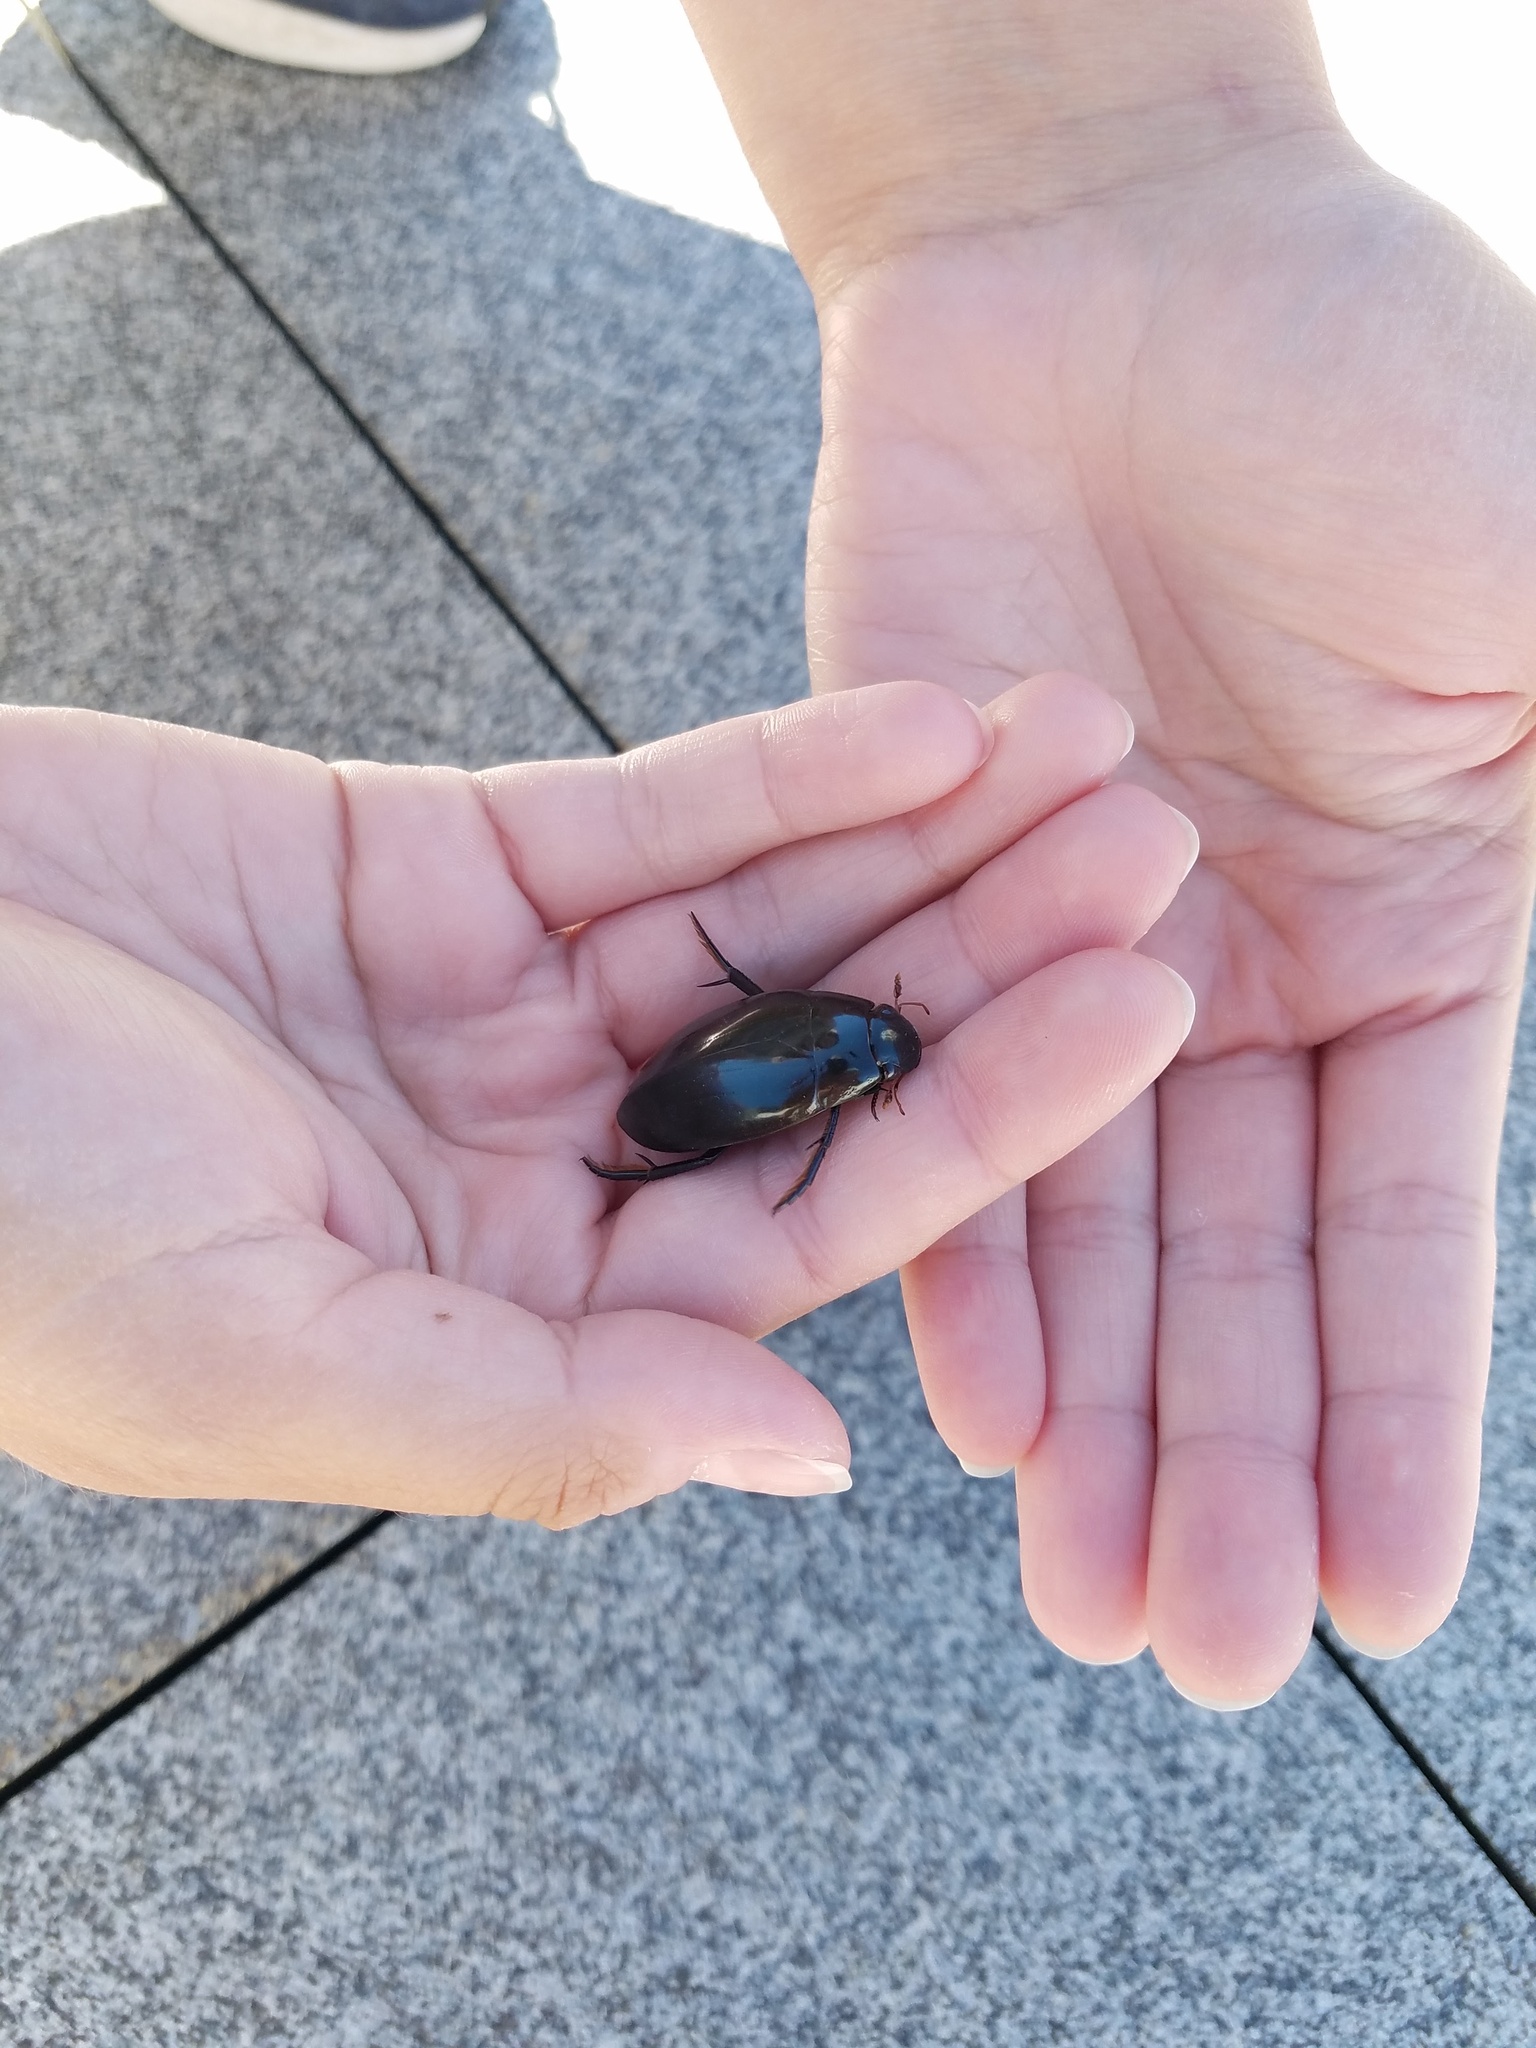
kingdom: Animalia
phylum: Arthropoda
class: Insecta
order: Coleoptera
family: Hydrophilidae
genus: Hydrophilus
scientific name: Hydrophilus triangularis
